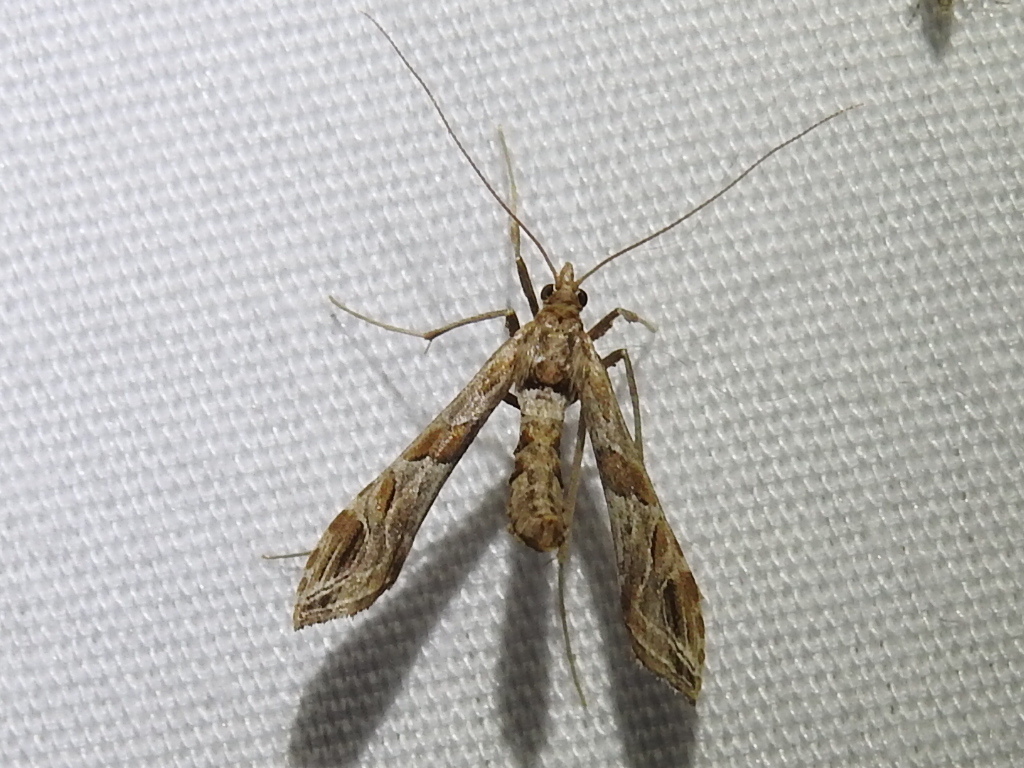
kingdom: Animalia
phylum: Arthropoda
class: Insecta
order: Lepidoptera
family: Crambidae
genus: Lineodes
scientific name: Lineodes interrupta
